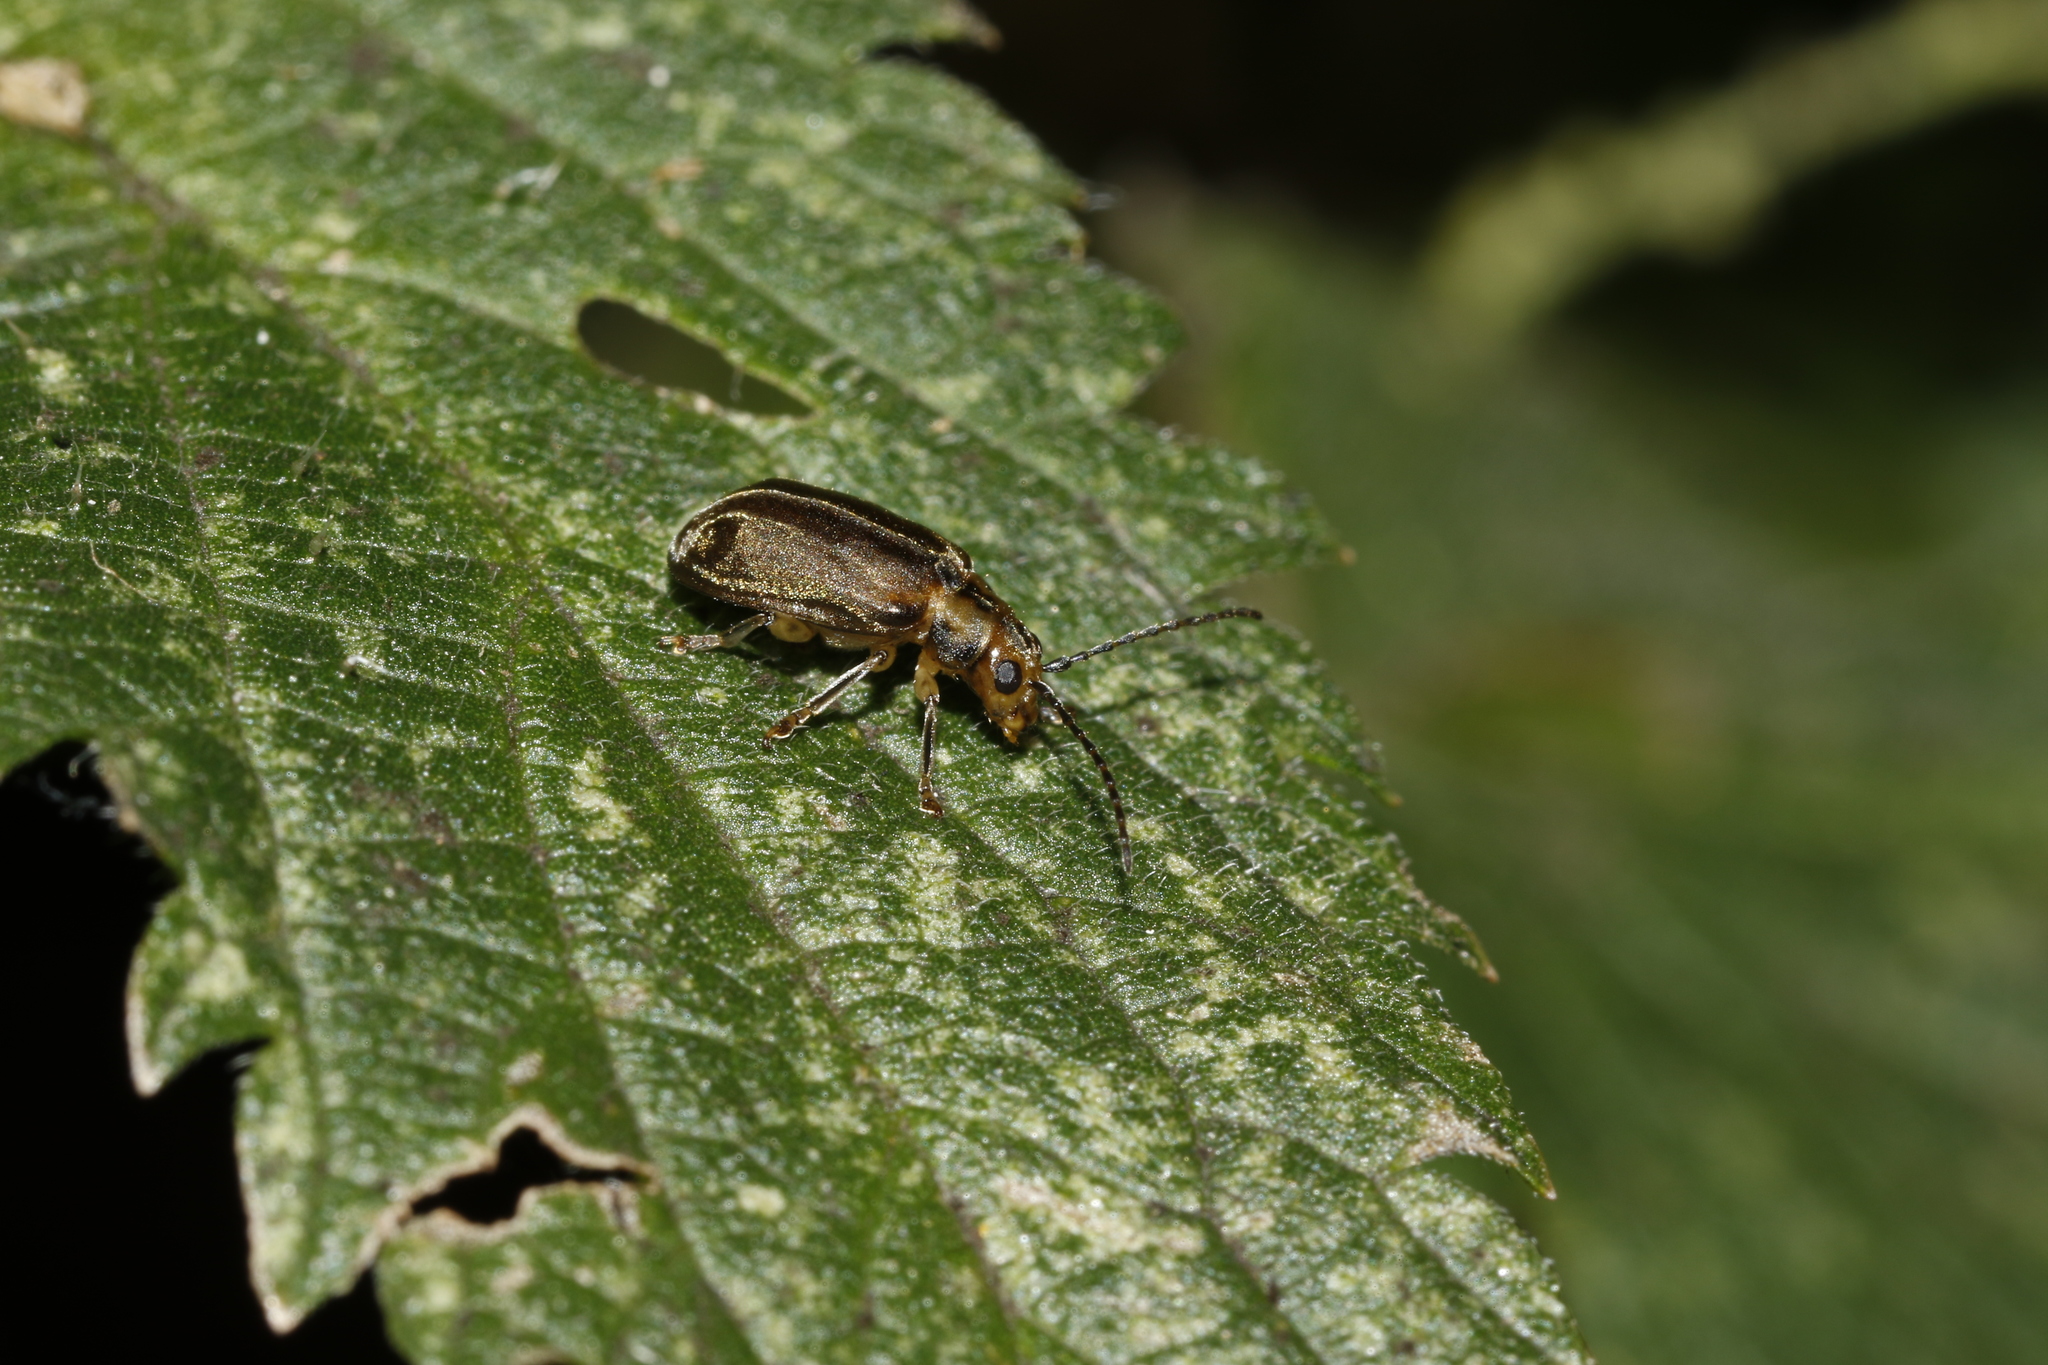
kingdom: Animalia
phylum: Arthropoda
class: Insecta
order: Coleoptera
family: Chrysomelidae
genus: Pyrrhalta
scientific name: Pyrrhalta viburni
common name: Guelder-rose leaf beetle
